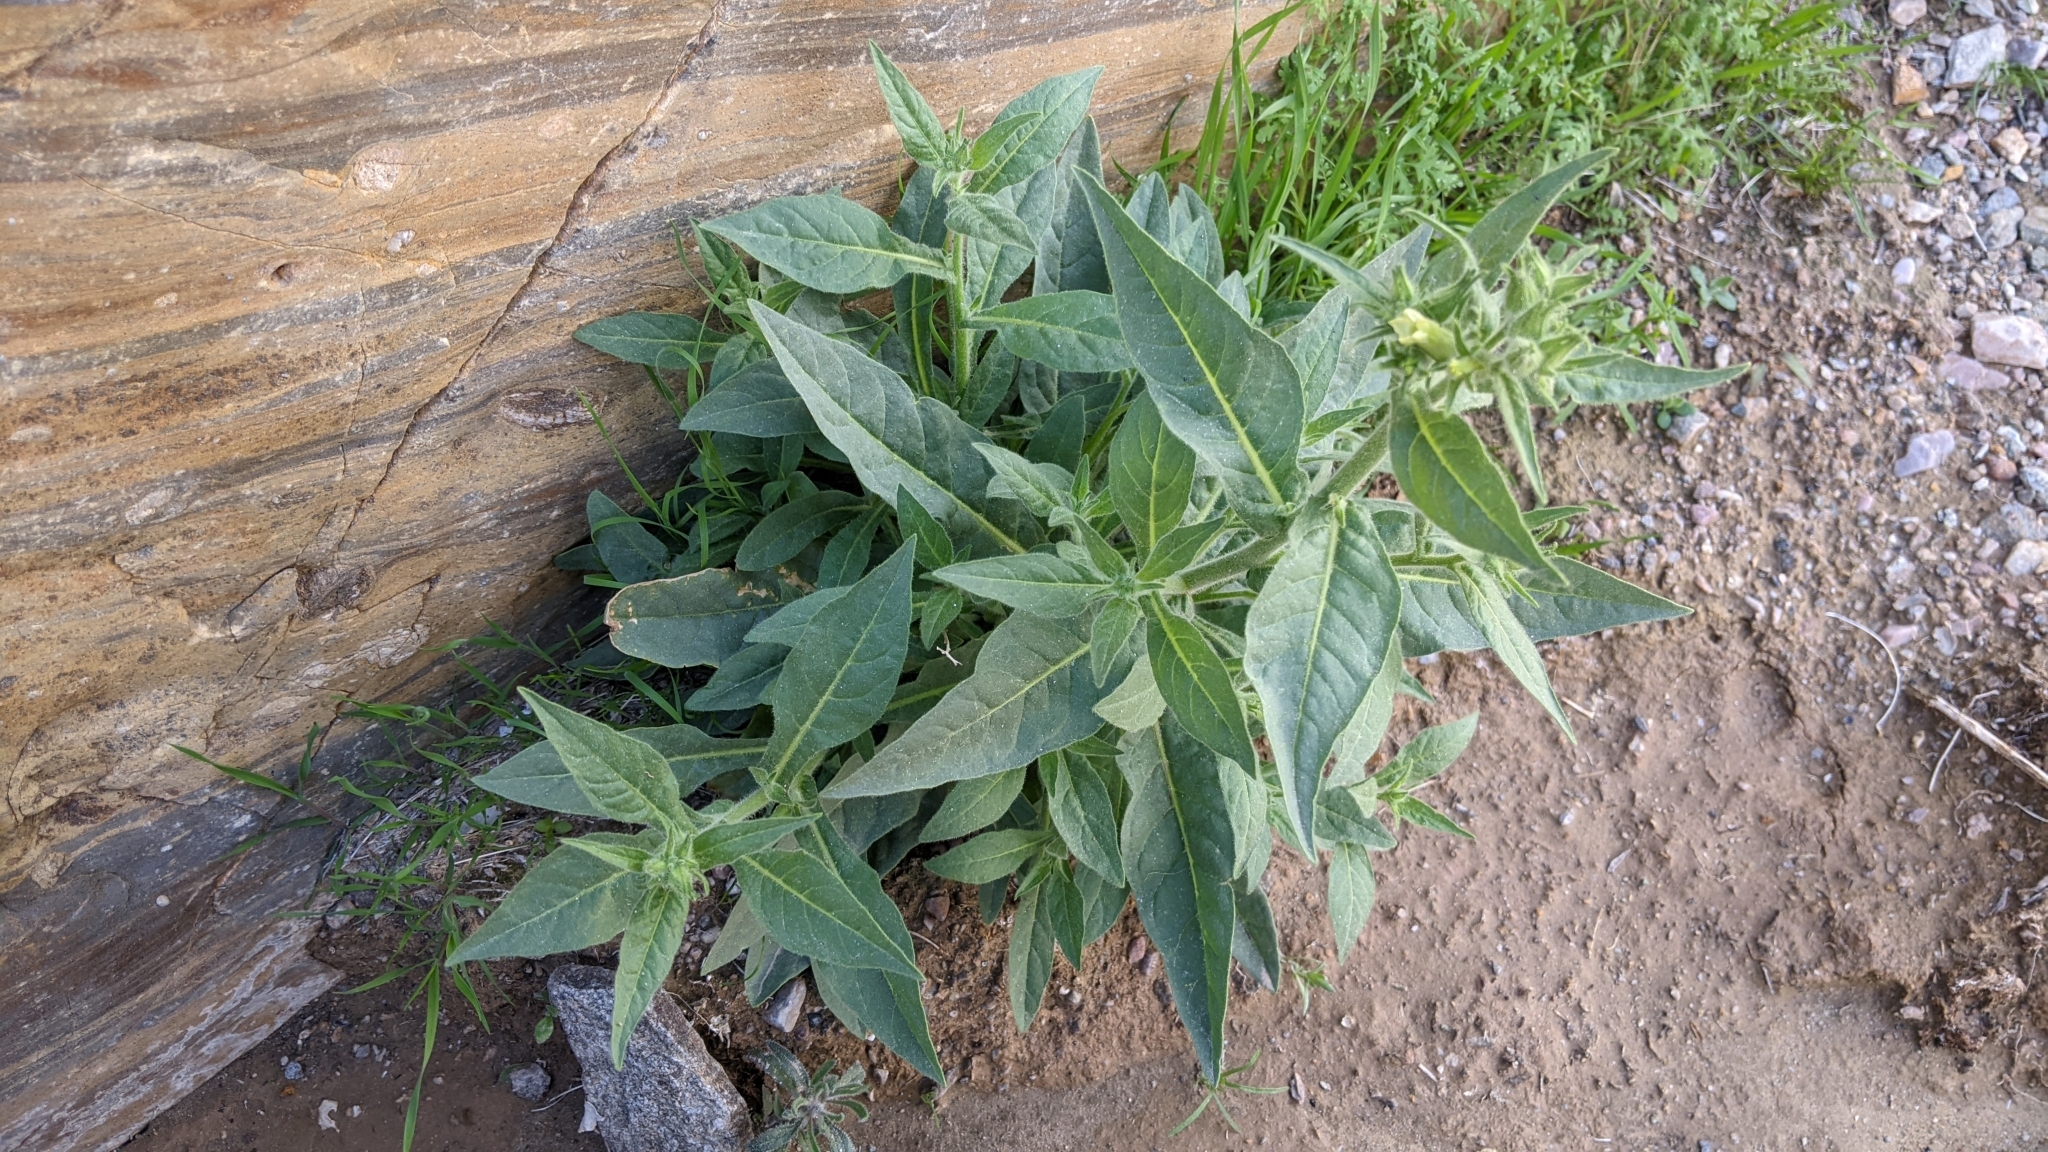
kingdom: Plantae
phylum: Tracheophyta
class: Magnoliopsida
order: Solanales
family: Solanaceae
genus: Nicotiana
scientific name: Nicotiana obtusifolia
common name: Desert tobacco
